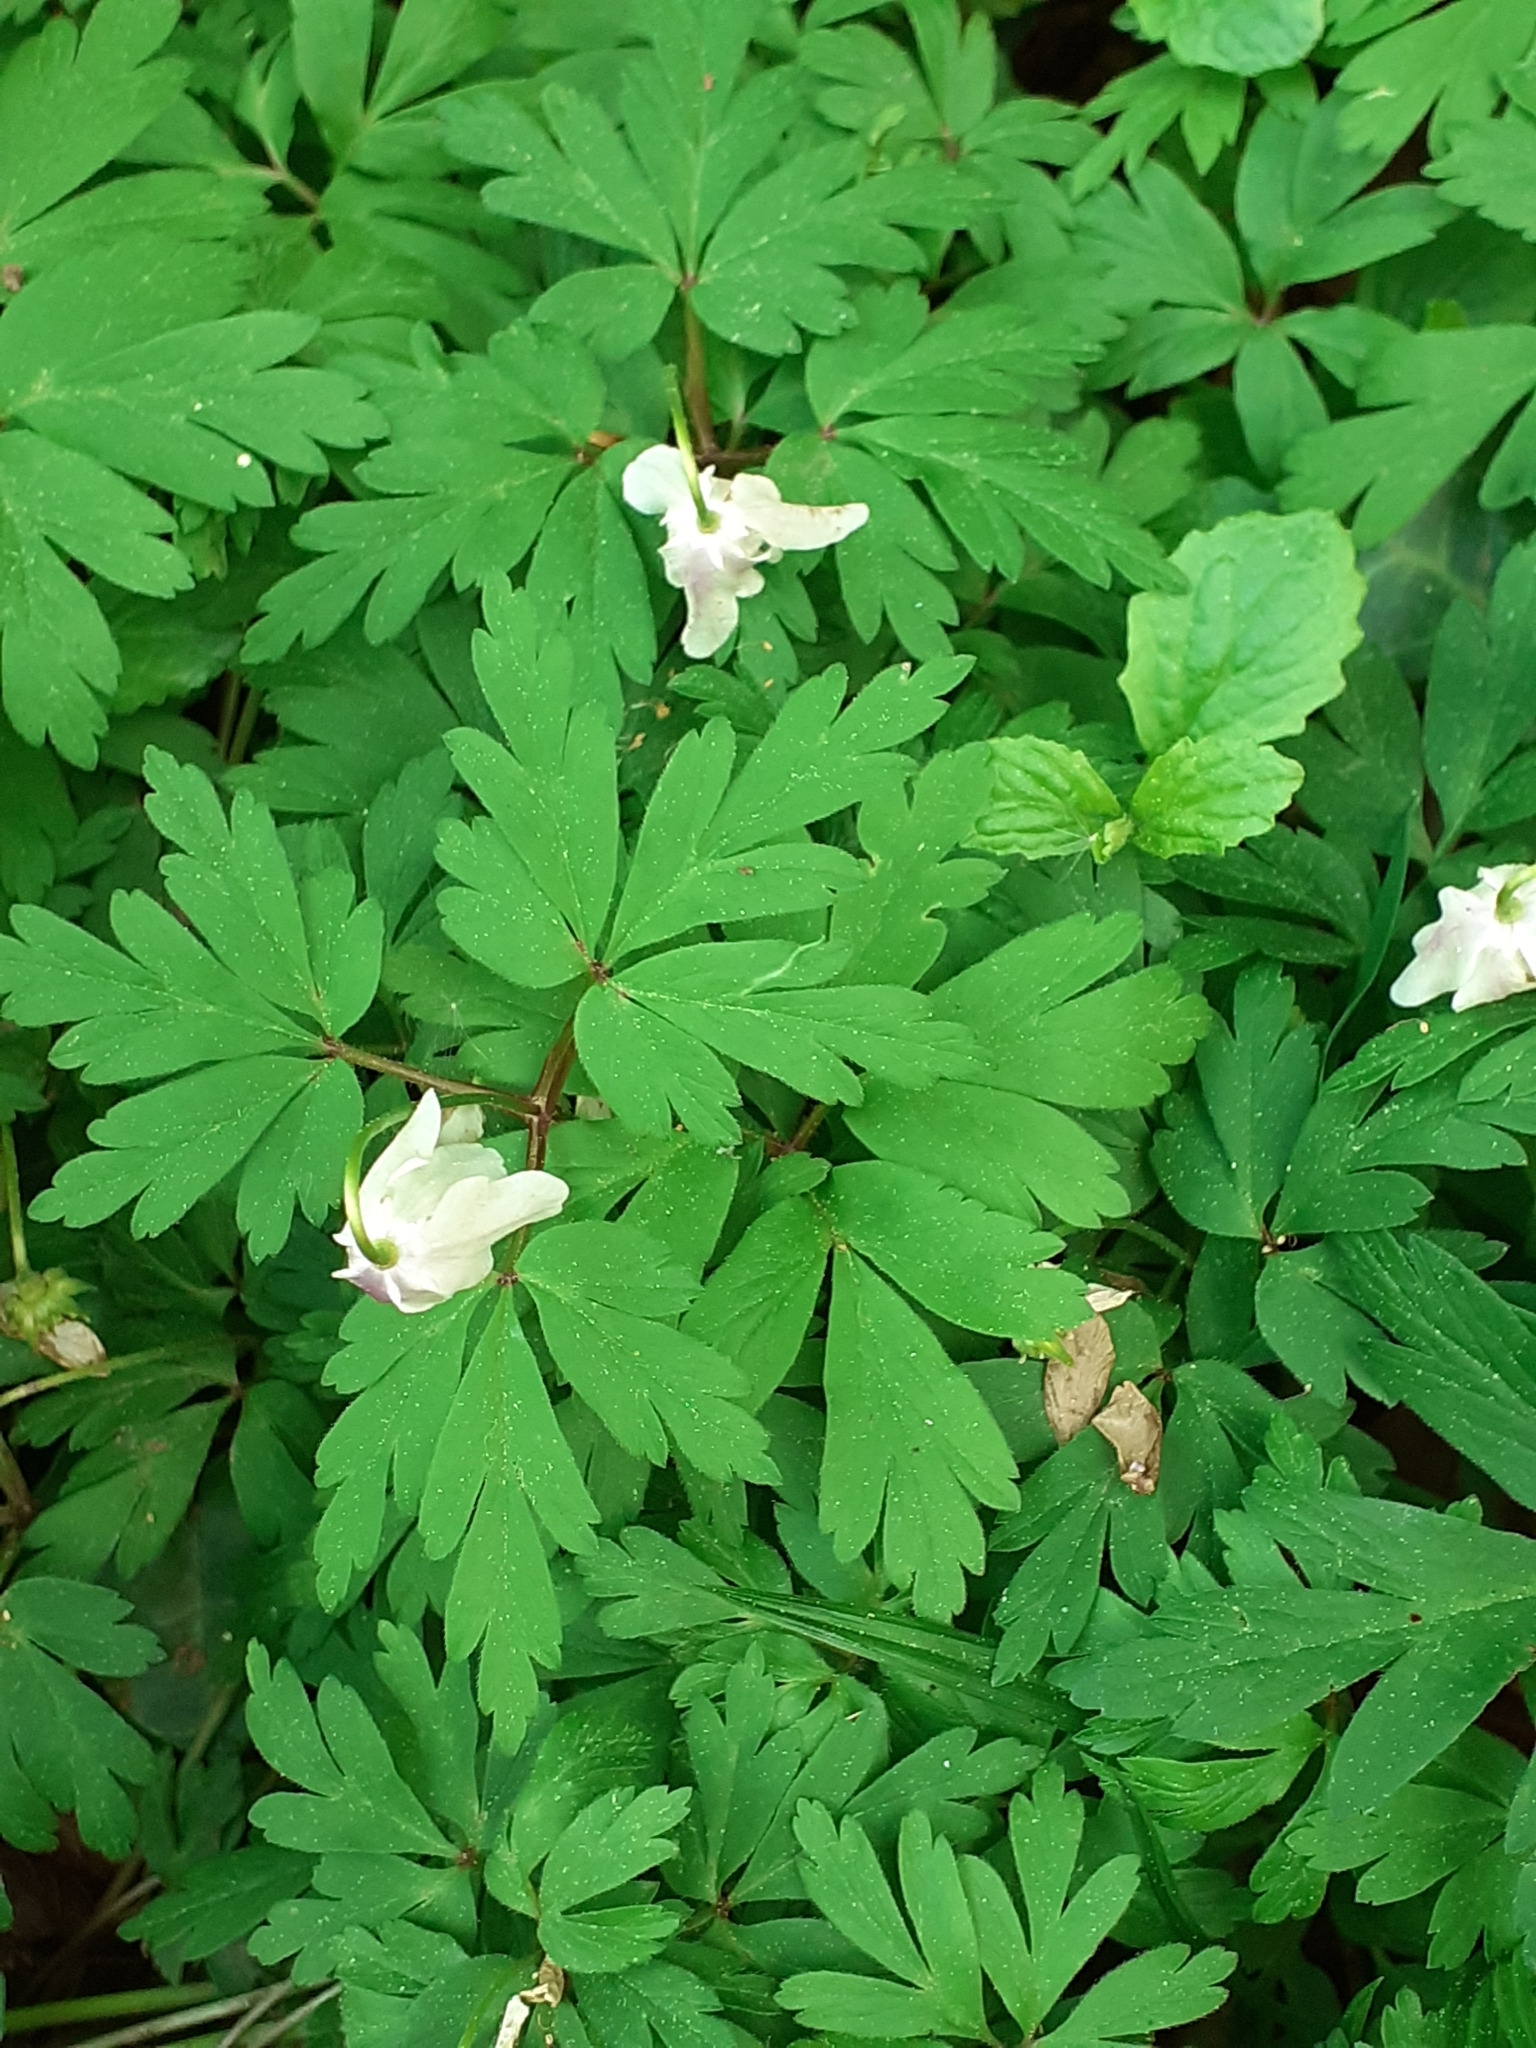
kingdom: Plantae
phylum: Tracheophyta
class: Magnoliopsida
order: Ranunculales
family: Ranunculaceae
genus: Anemone
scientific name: Anemone nemorosa
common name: Wood anemone
